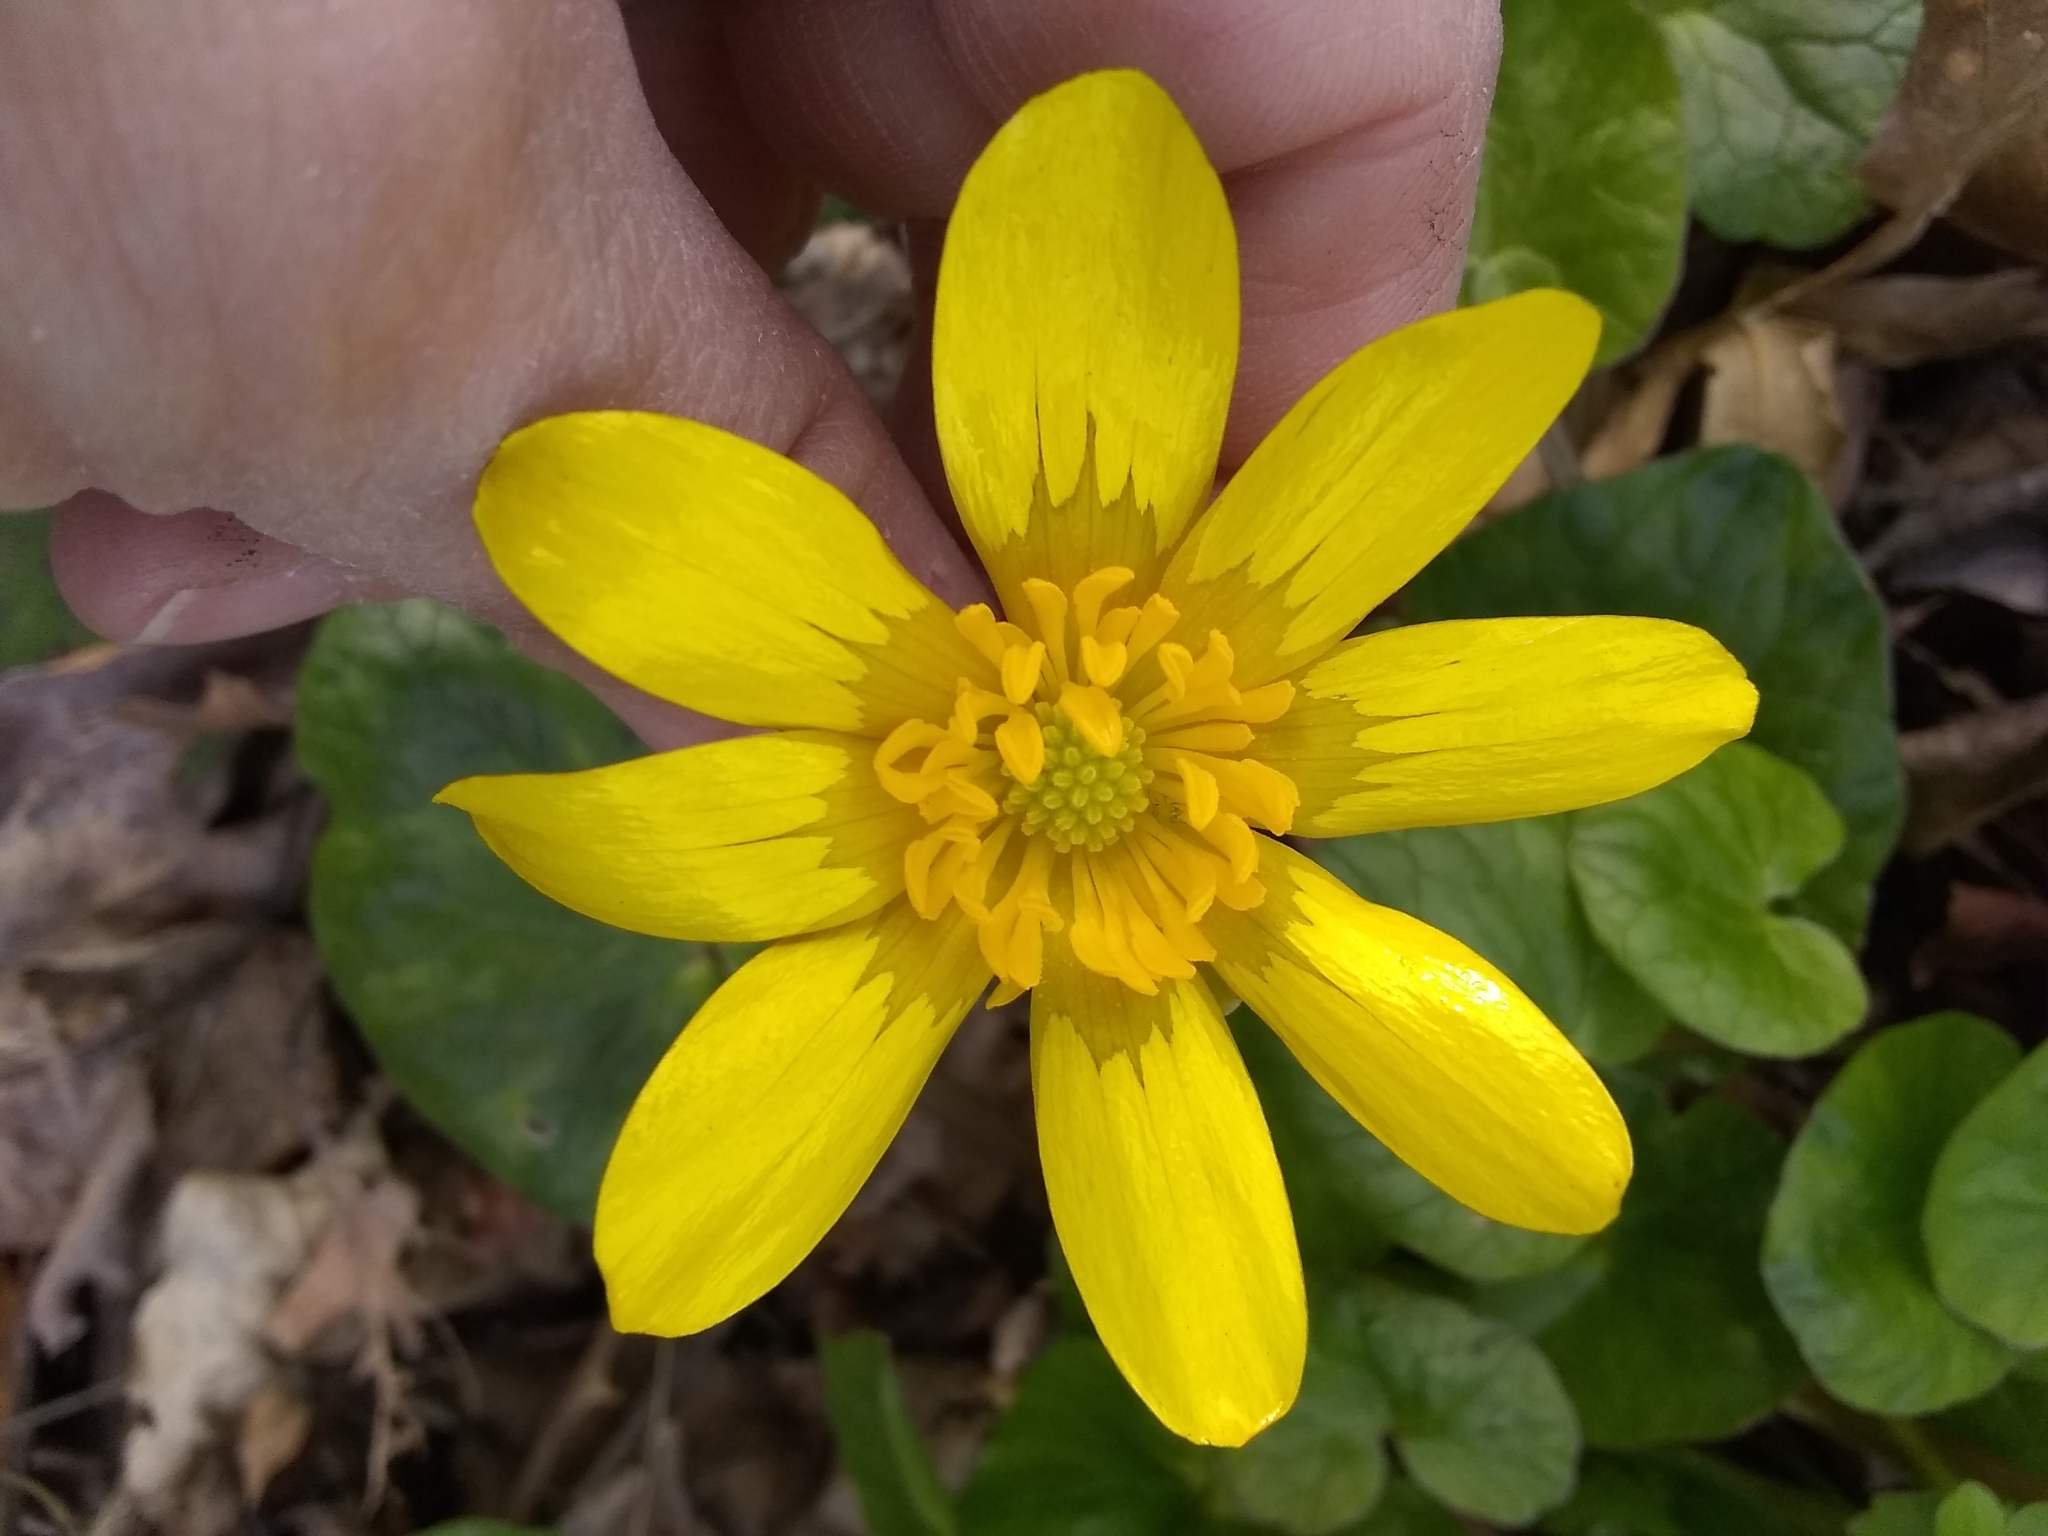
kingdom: Plantae
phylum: Tracheophyta
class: Magnoliopsida
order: Ranunculales
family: Ranunculaceae
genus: Ficaria
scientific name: Ficaria verna
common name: Lesser celandine
